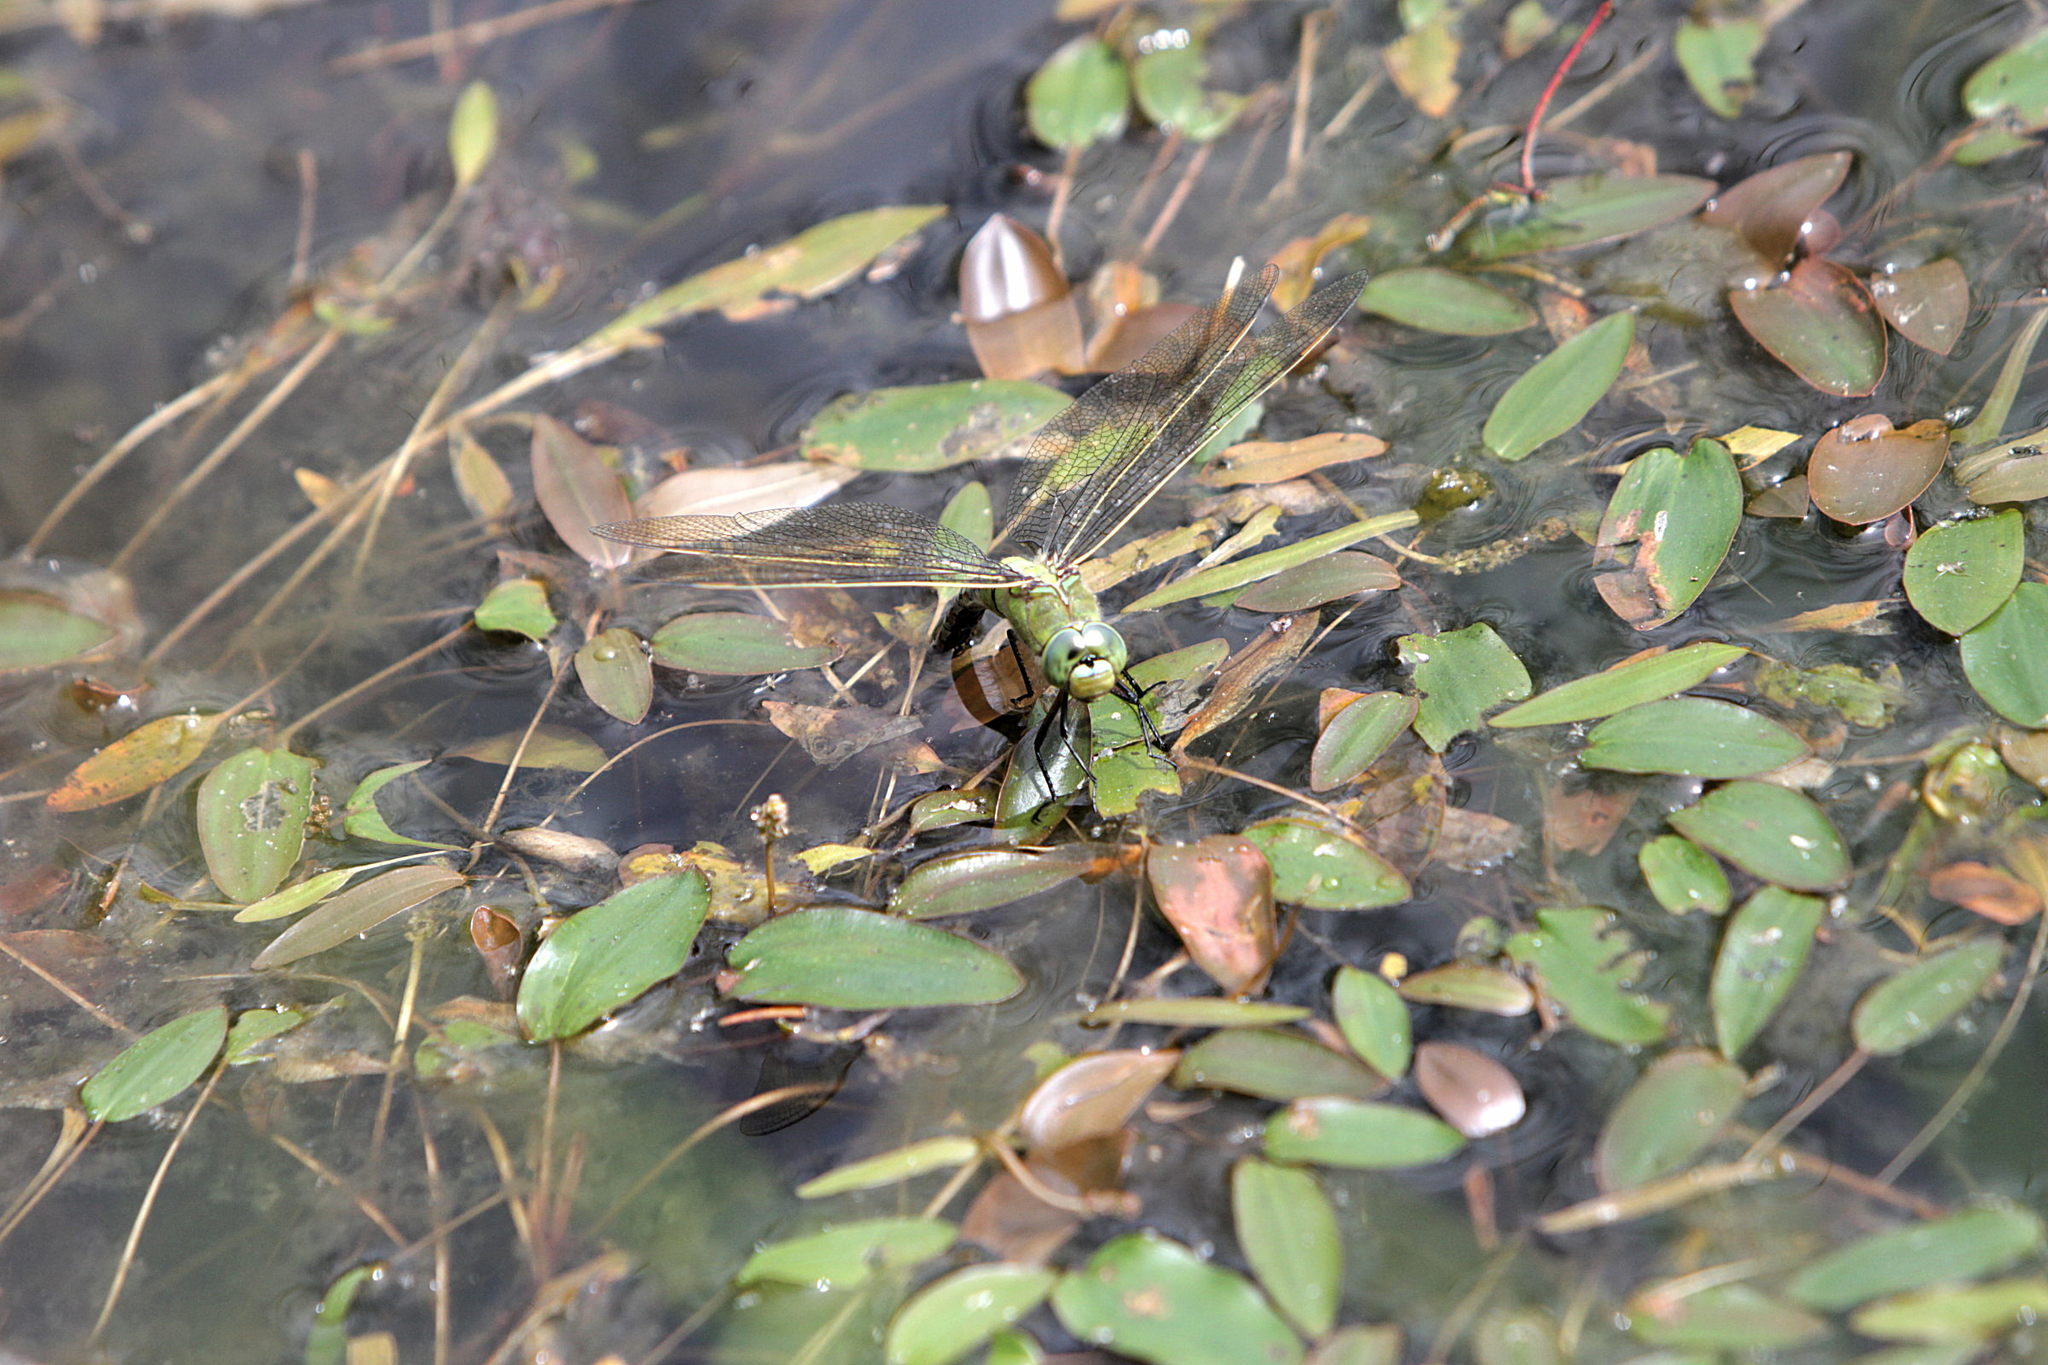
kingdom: Animalia
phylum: Arthropoda
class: Insecta
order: Odonata
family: Aeshnidae
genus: Anax
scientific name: Anax imperator
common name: Emperor dragonfly
